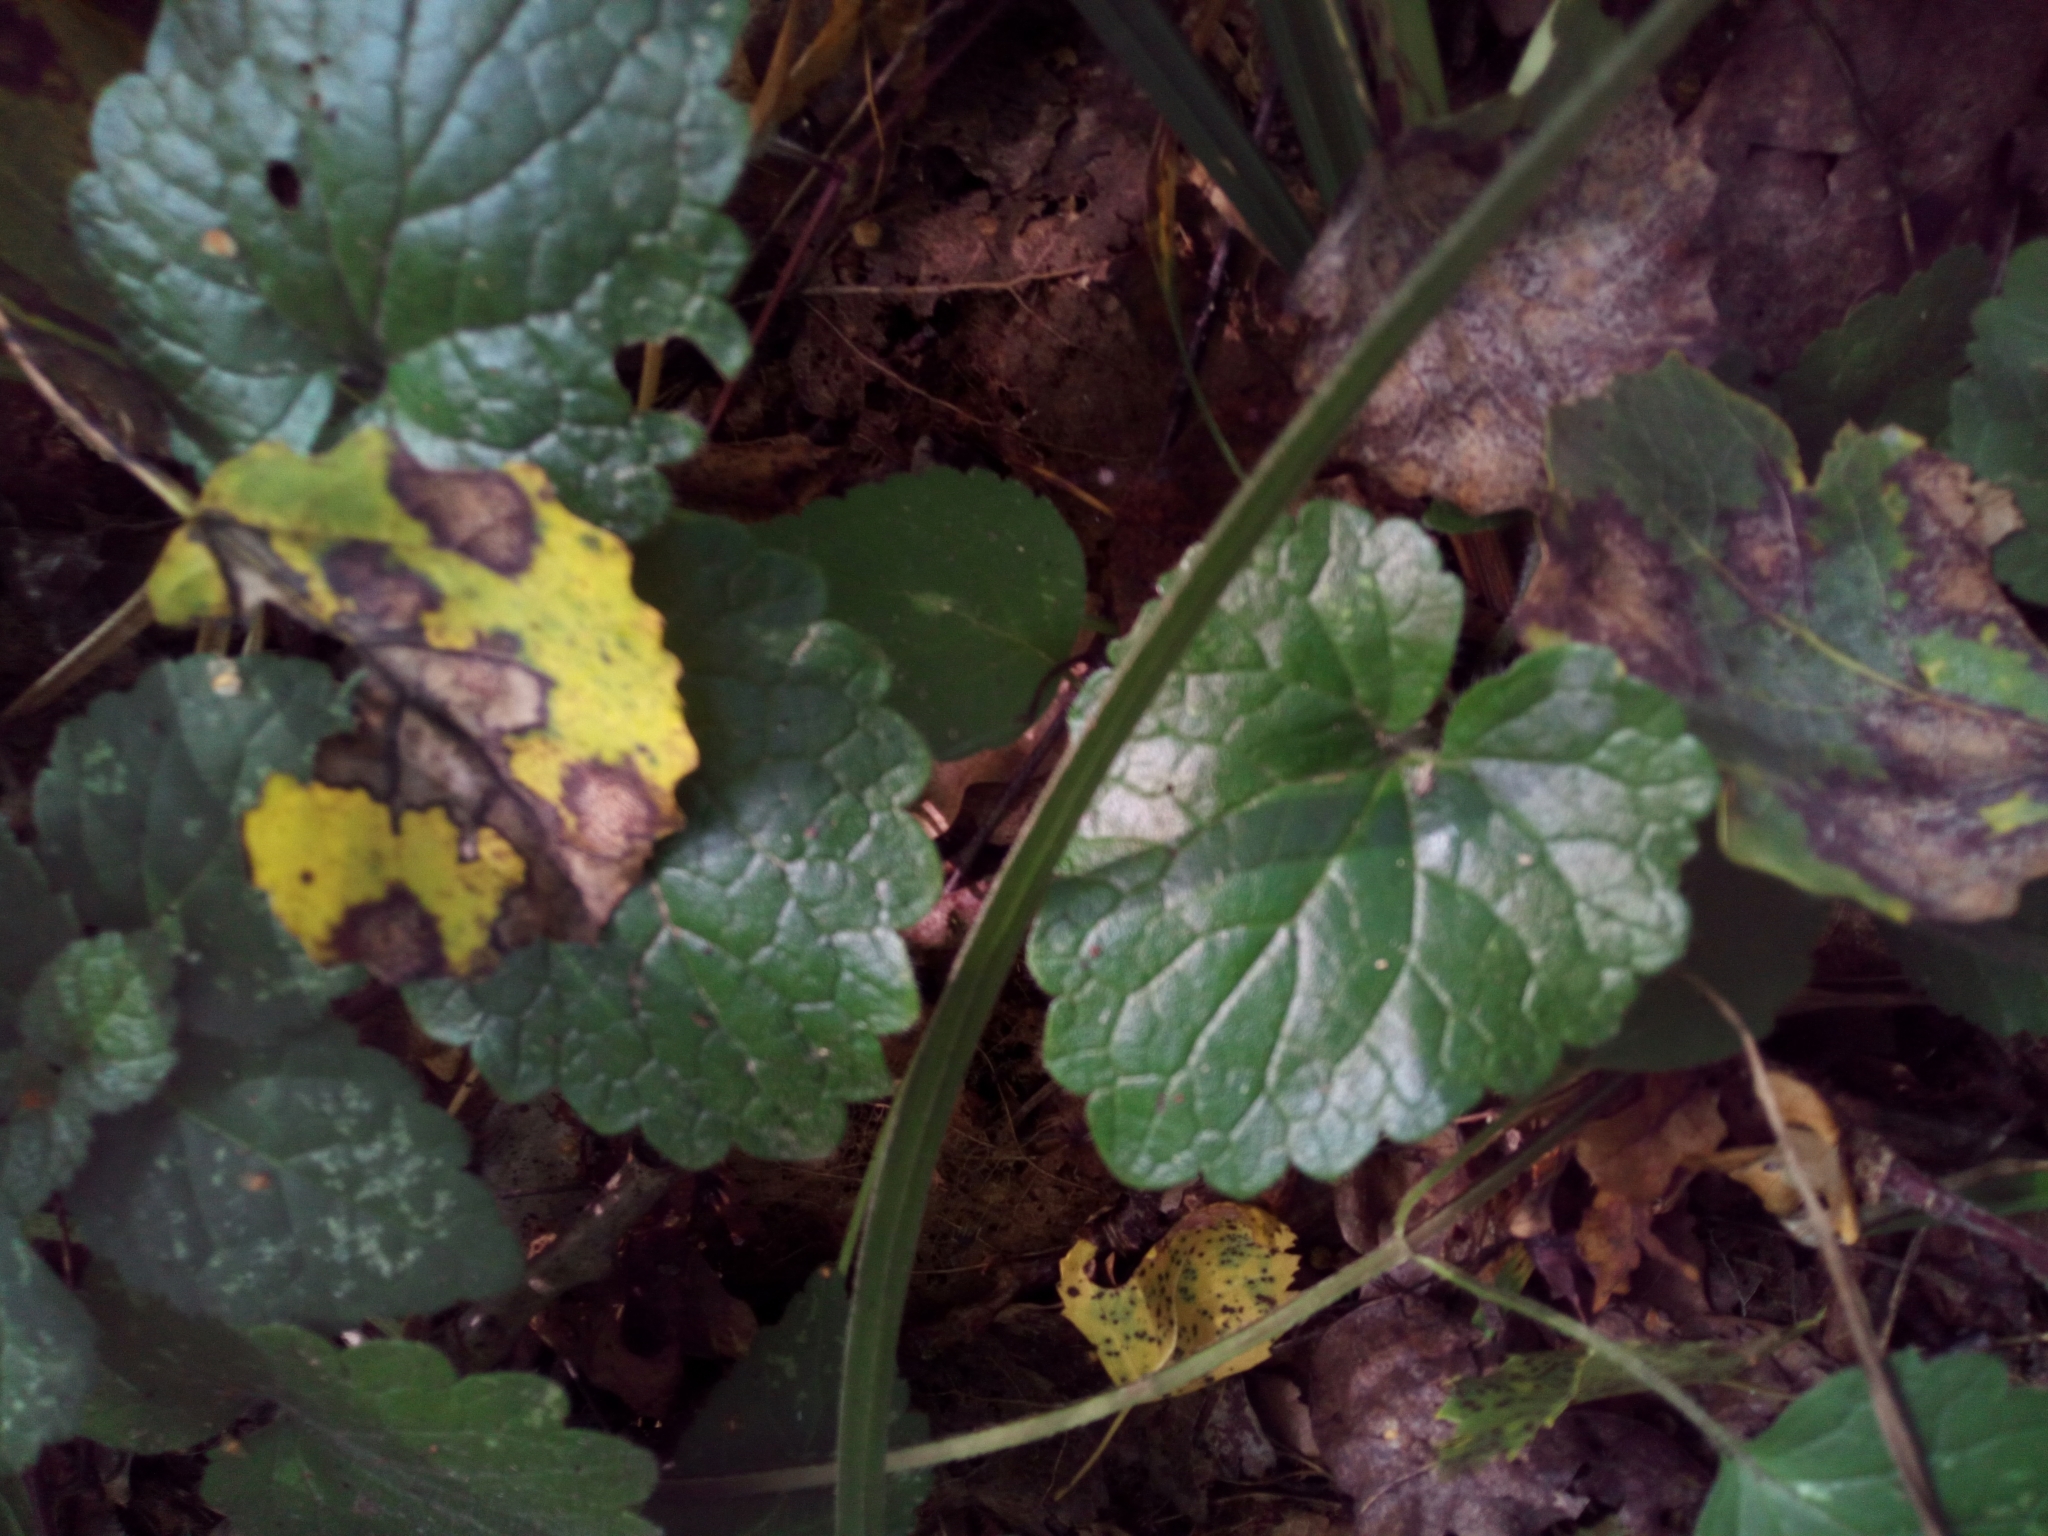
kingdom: Plantae
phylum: Tracheophyta
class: Magnoliopsida
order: Lamiales
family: Lamiaceae
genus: Glechoma
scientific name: Glechoma hederacea
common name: Ground ivy
